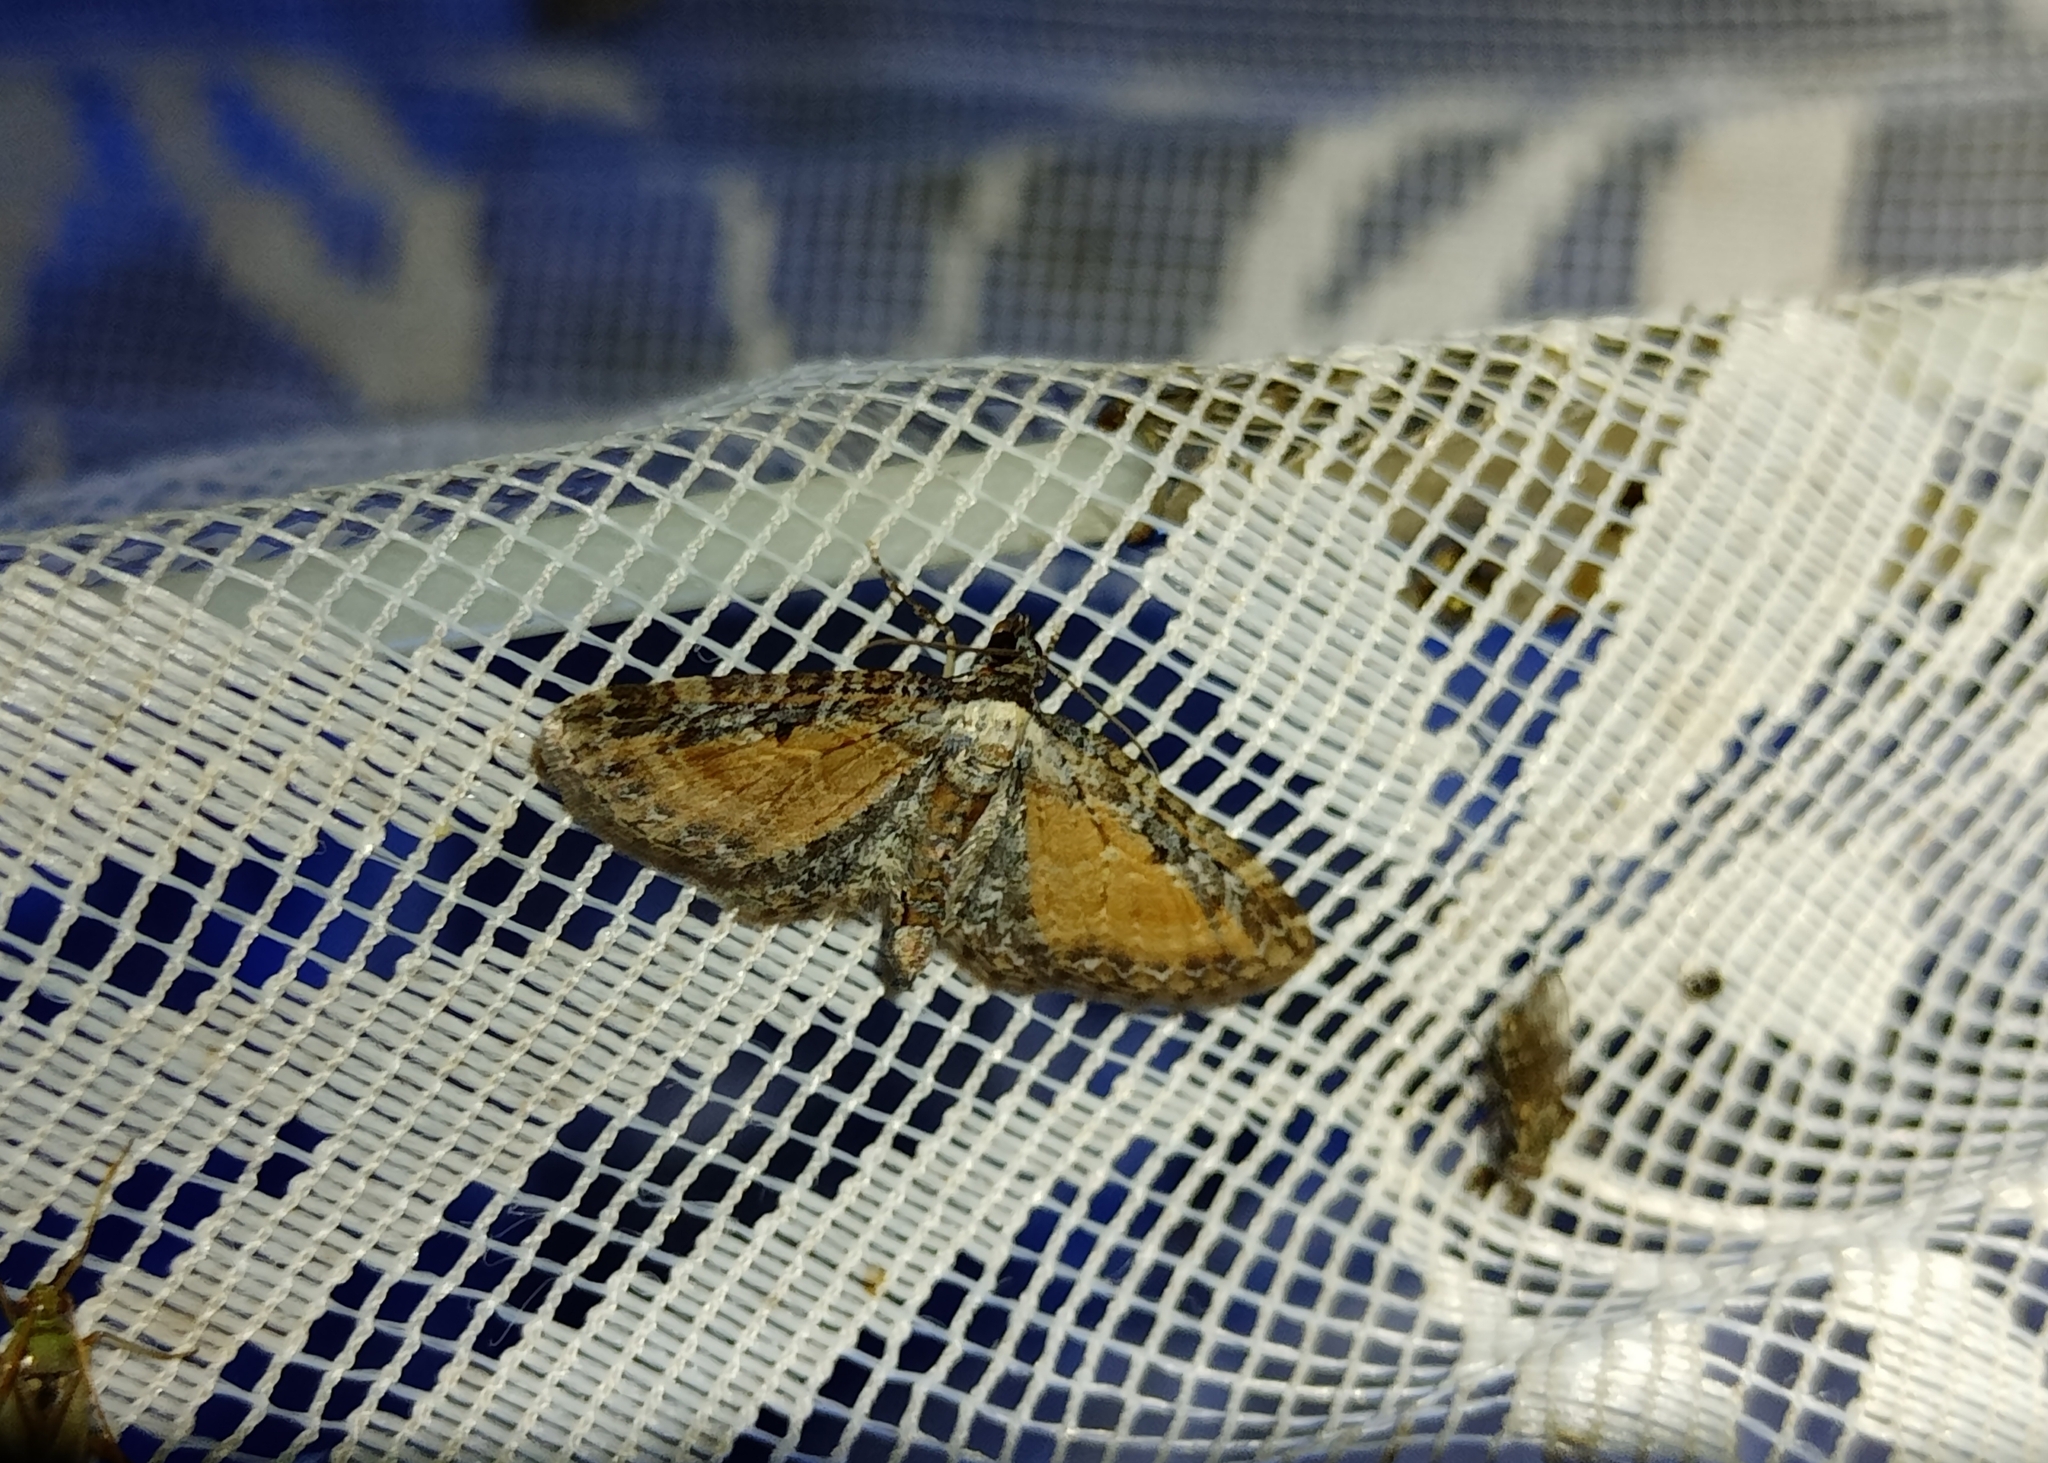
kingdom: Animalia
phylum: Arthropoda
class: Insecta
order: Lepidoptera
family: Geometridae
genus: Eupithecia
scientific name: Eupithecia icterata
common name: Tawny speckled pug
